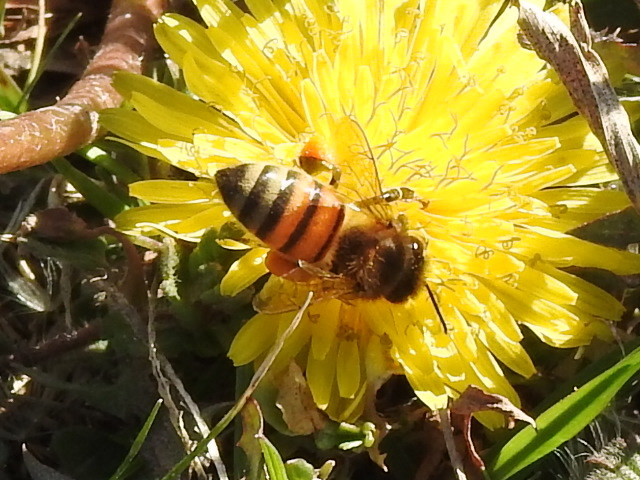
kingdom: Animalia
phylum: Arthropoda
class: Insecta
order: Hymenoptera
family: Apidae
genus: Apis
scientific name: Apis mellifera
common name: Honey bee
